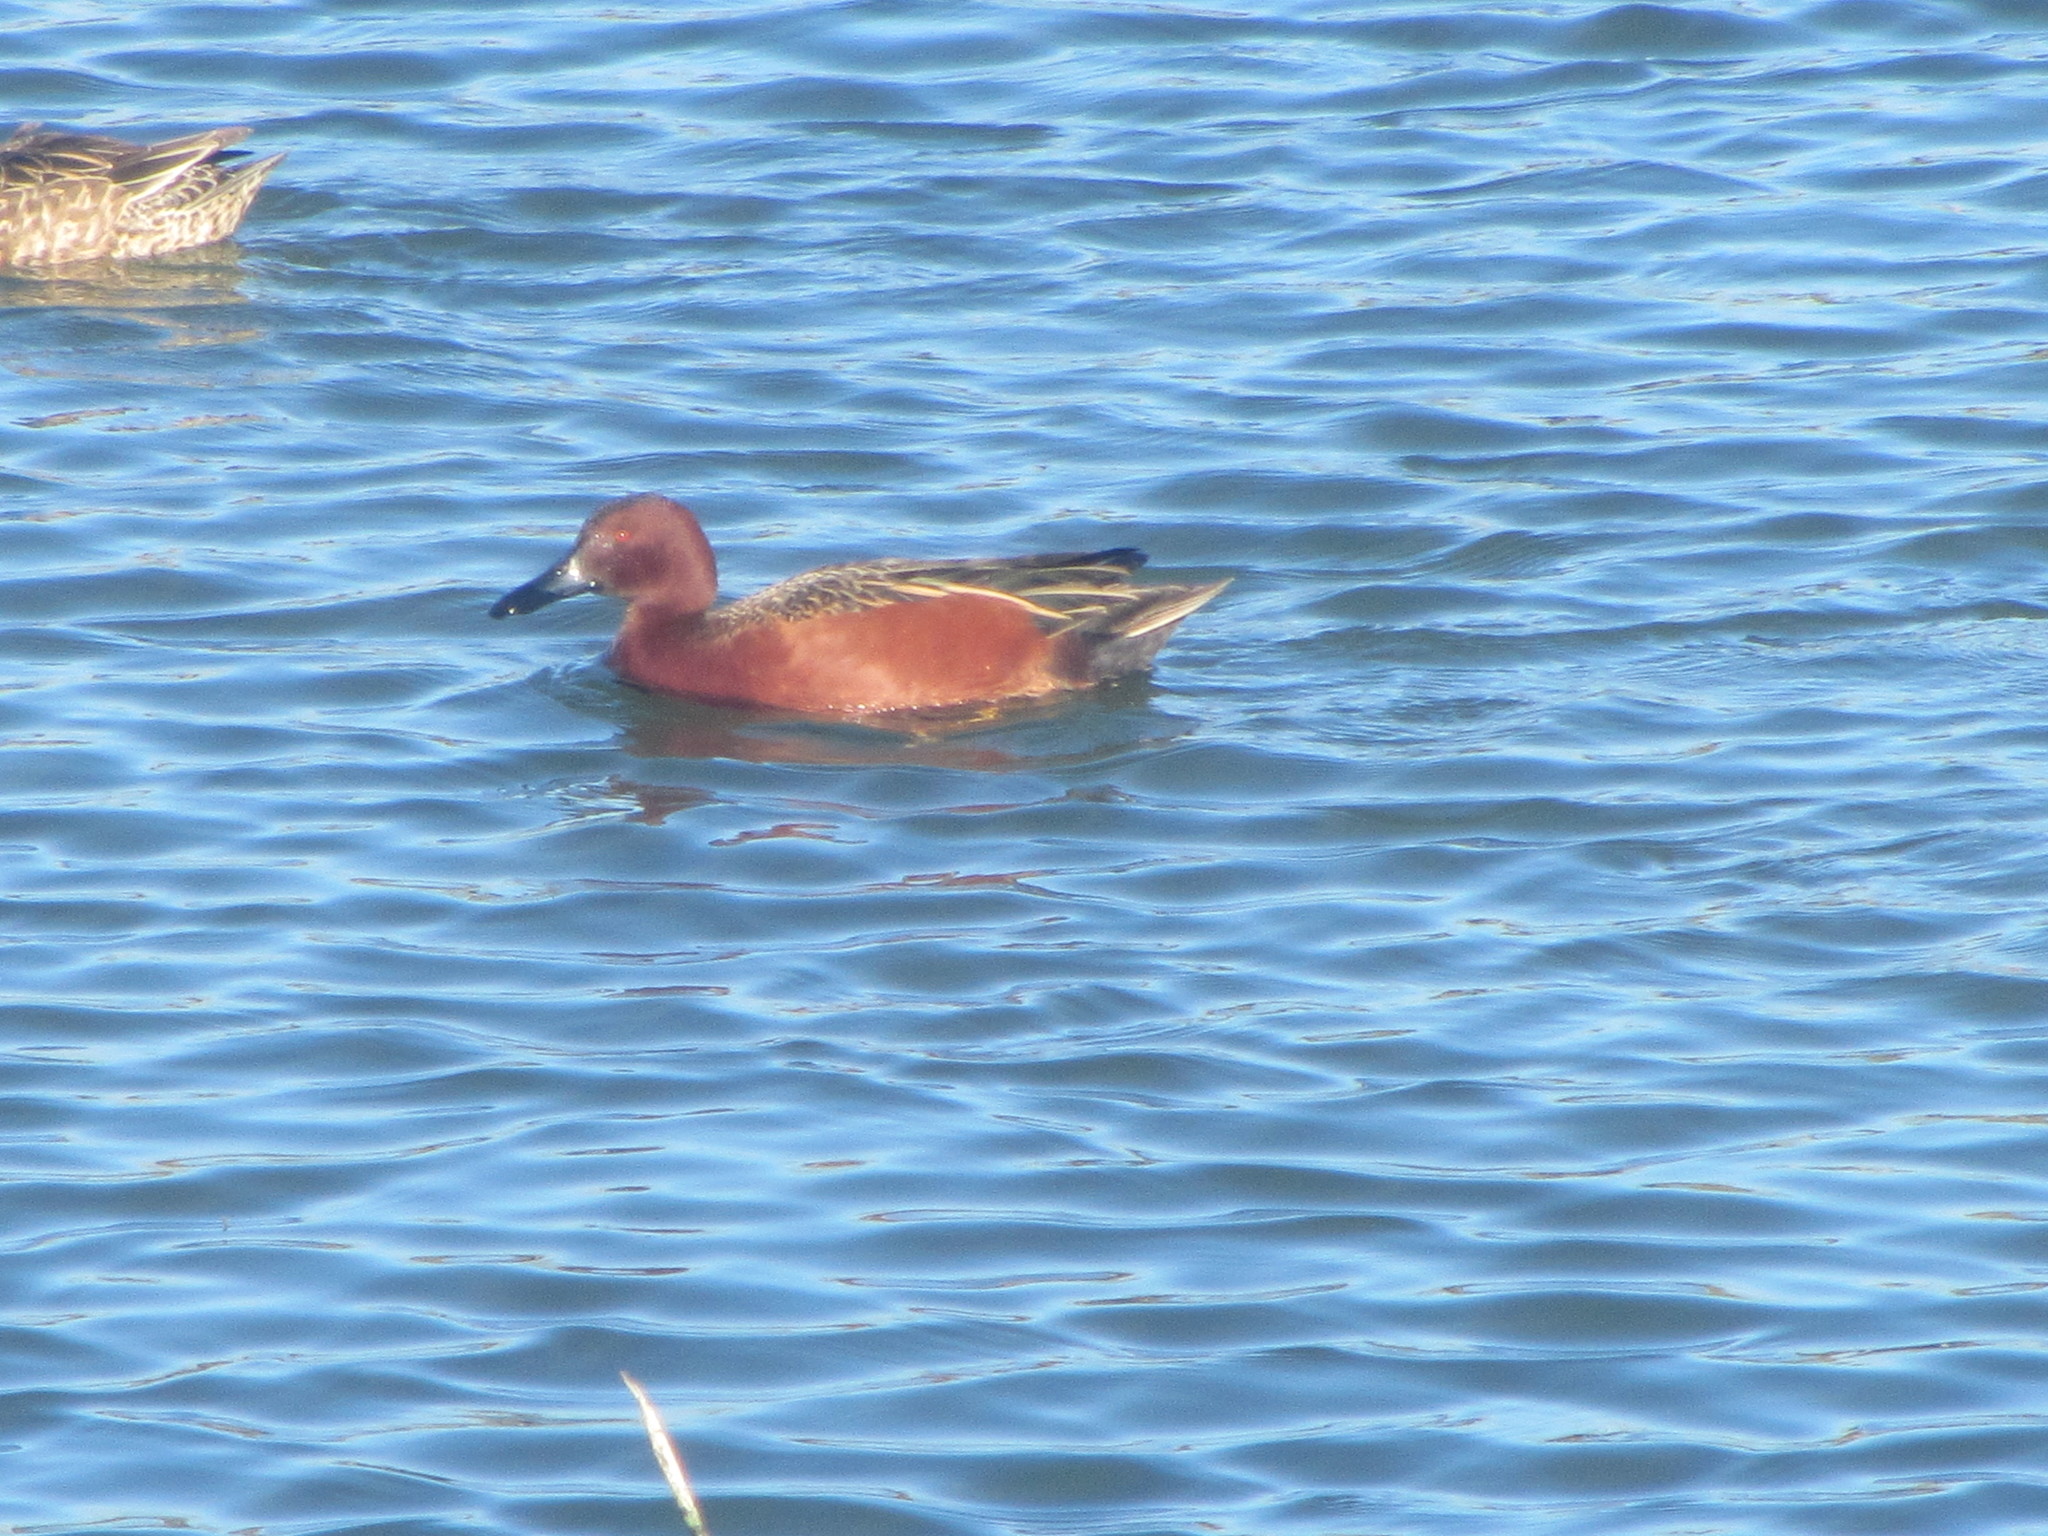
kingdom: Animalia
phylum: Chordata
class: Aves
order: Anseriformes
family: Anatidae
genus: Spatula
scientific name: Spatula cyanoptera
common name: Cinnamon teal
